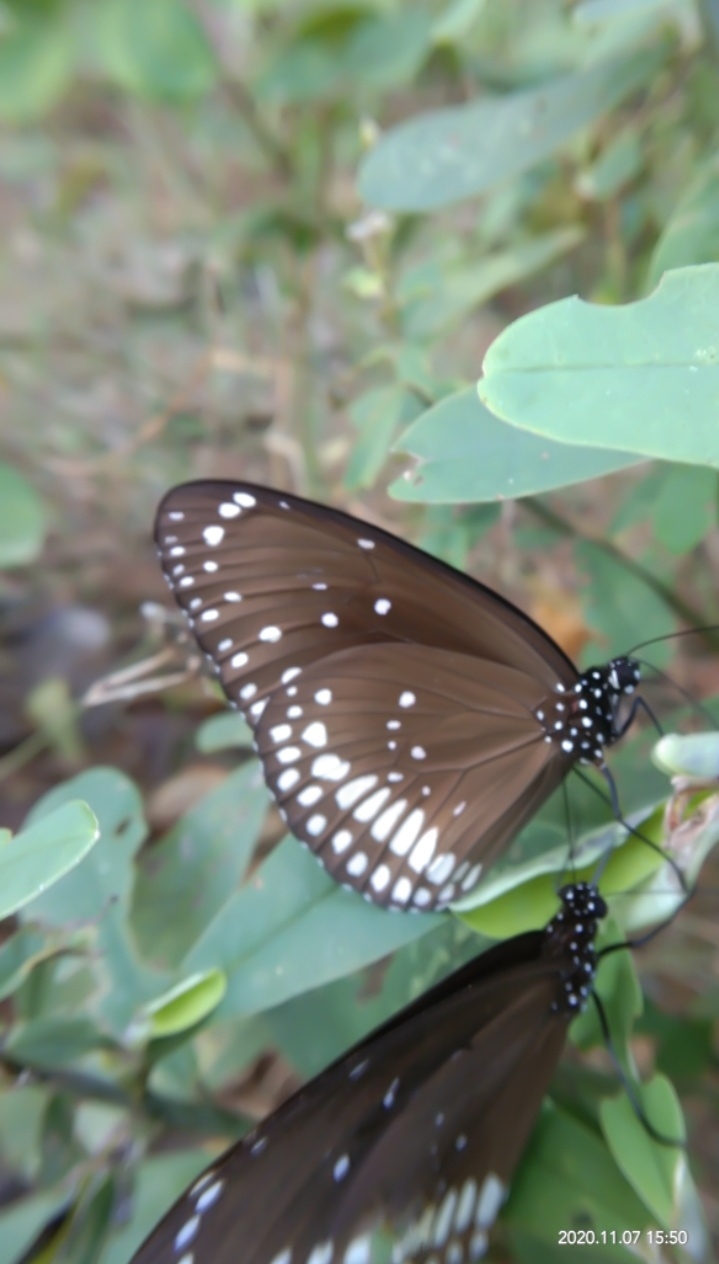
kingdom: Animalia
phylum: Arthropoda
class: Insecta
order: Lepidoptera
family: Nymphalidae
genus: Euploea
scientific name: Euploea core
